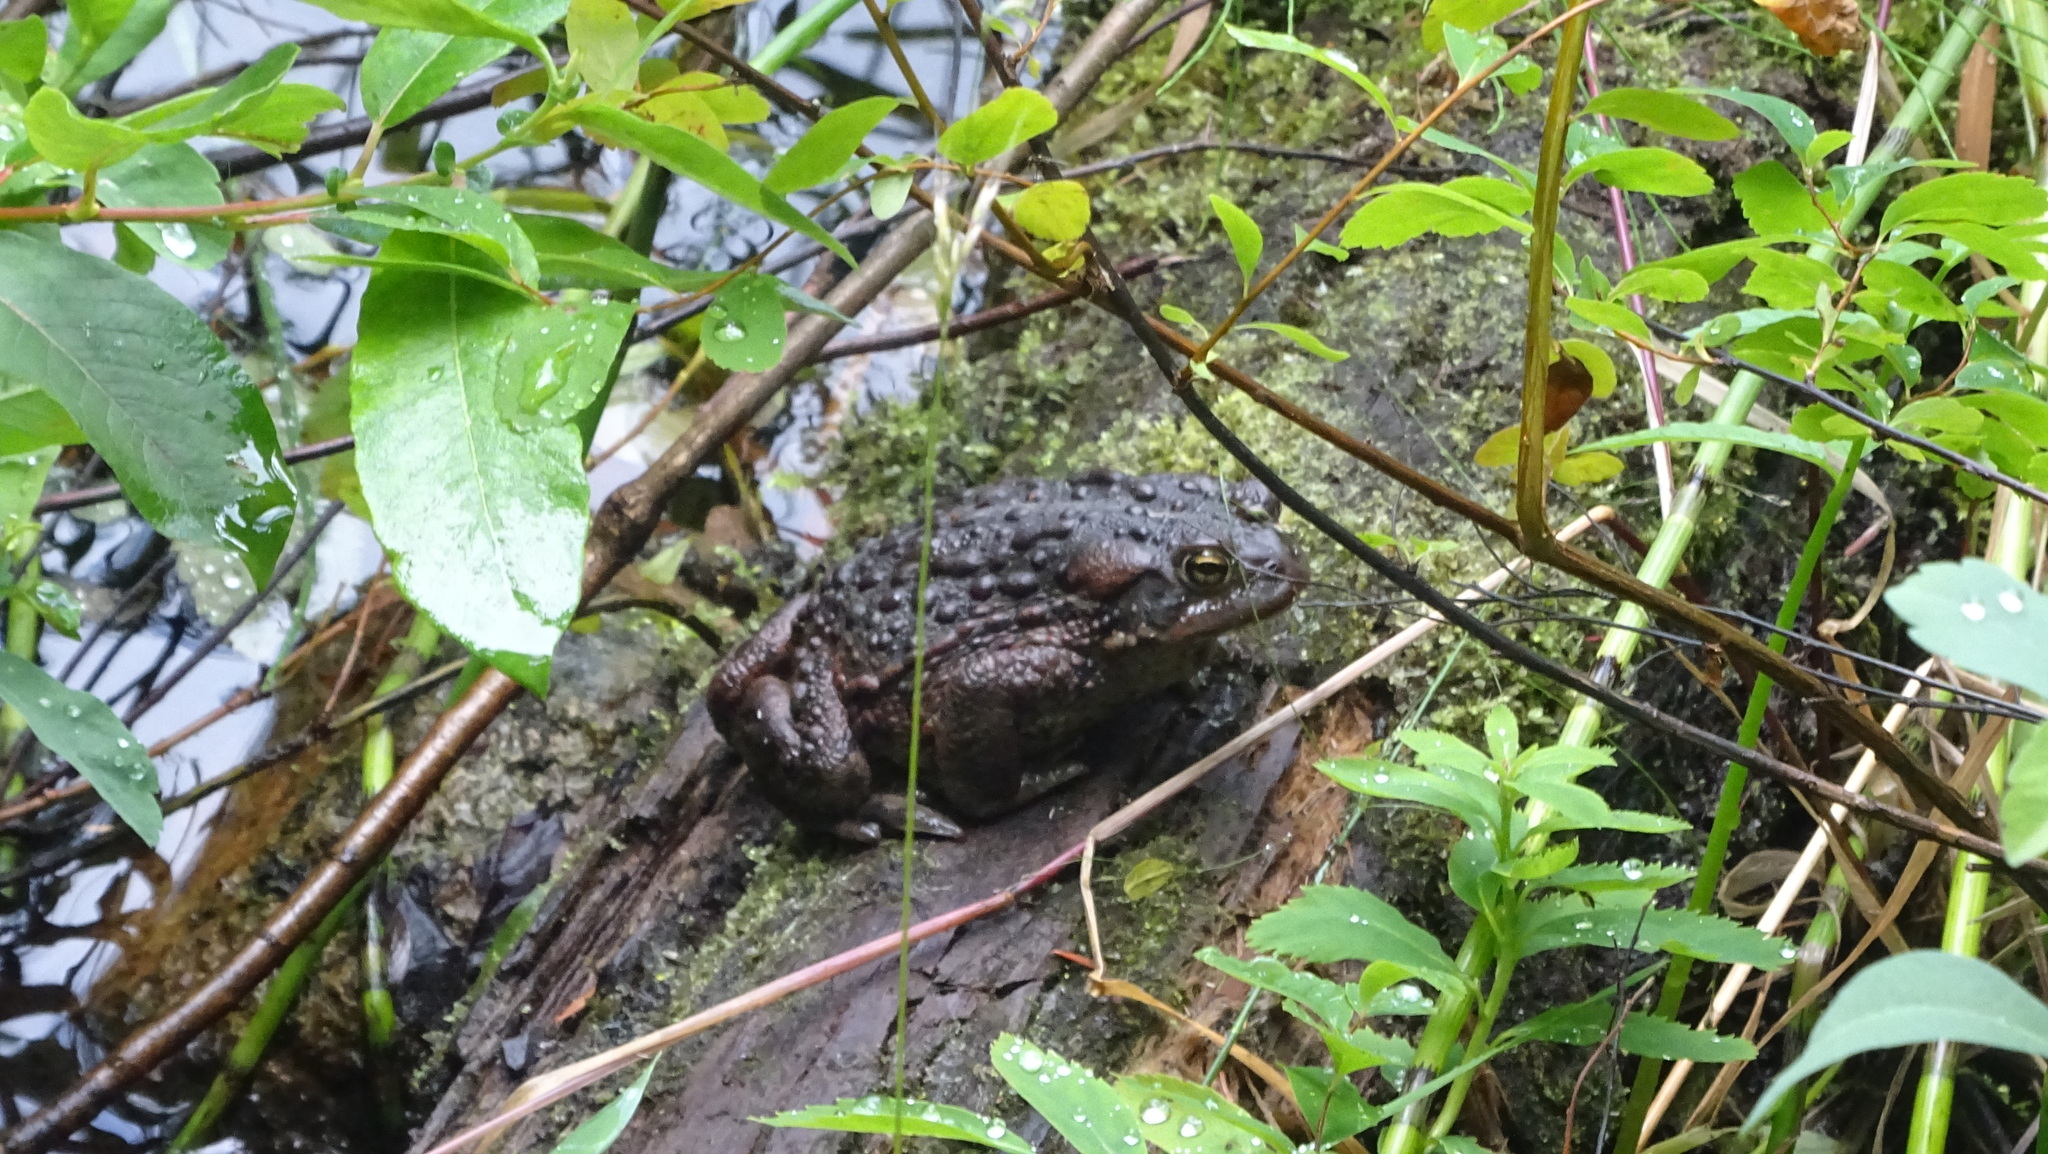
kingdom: Animalia
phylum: Chordata
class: Amphibia
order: Anura
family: Bufonidae
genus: Anaxyrus
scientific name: Anaxyrus boreas
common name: Western toad
